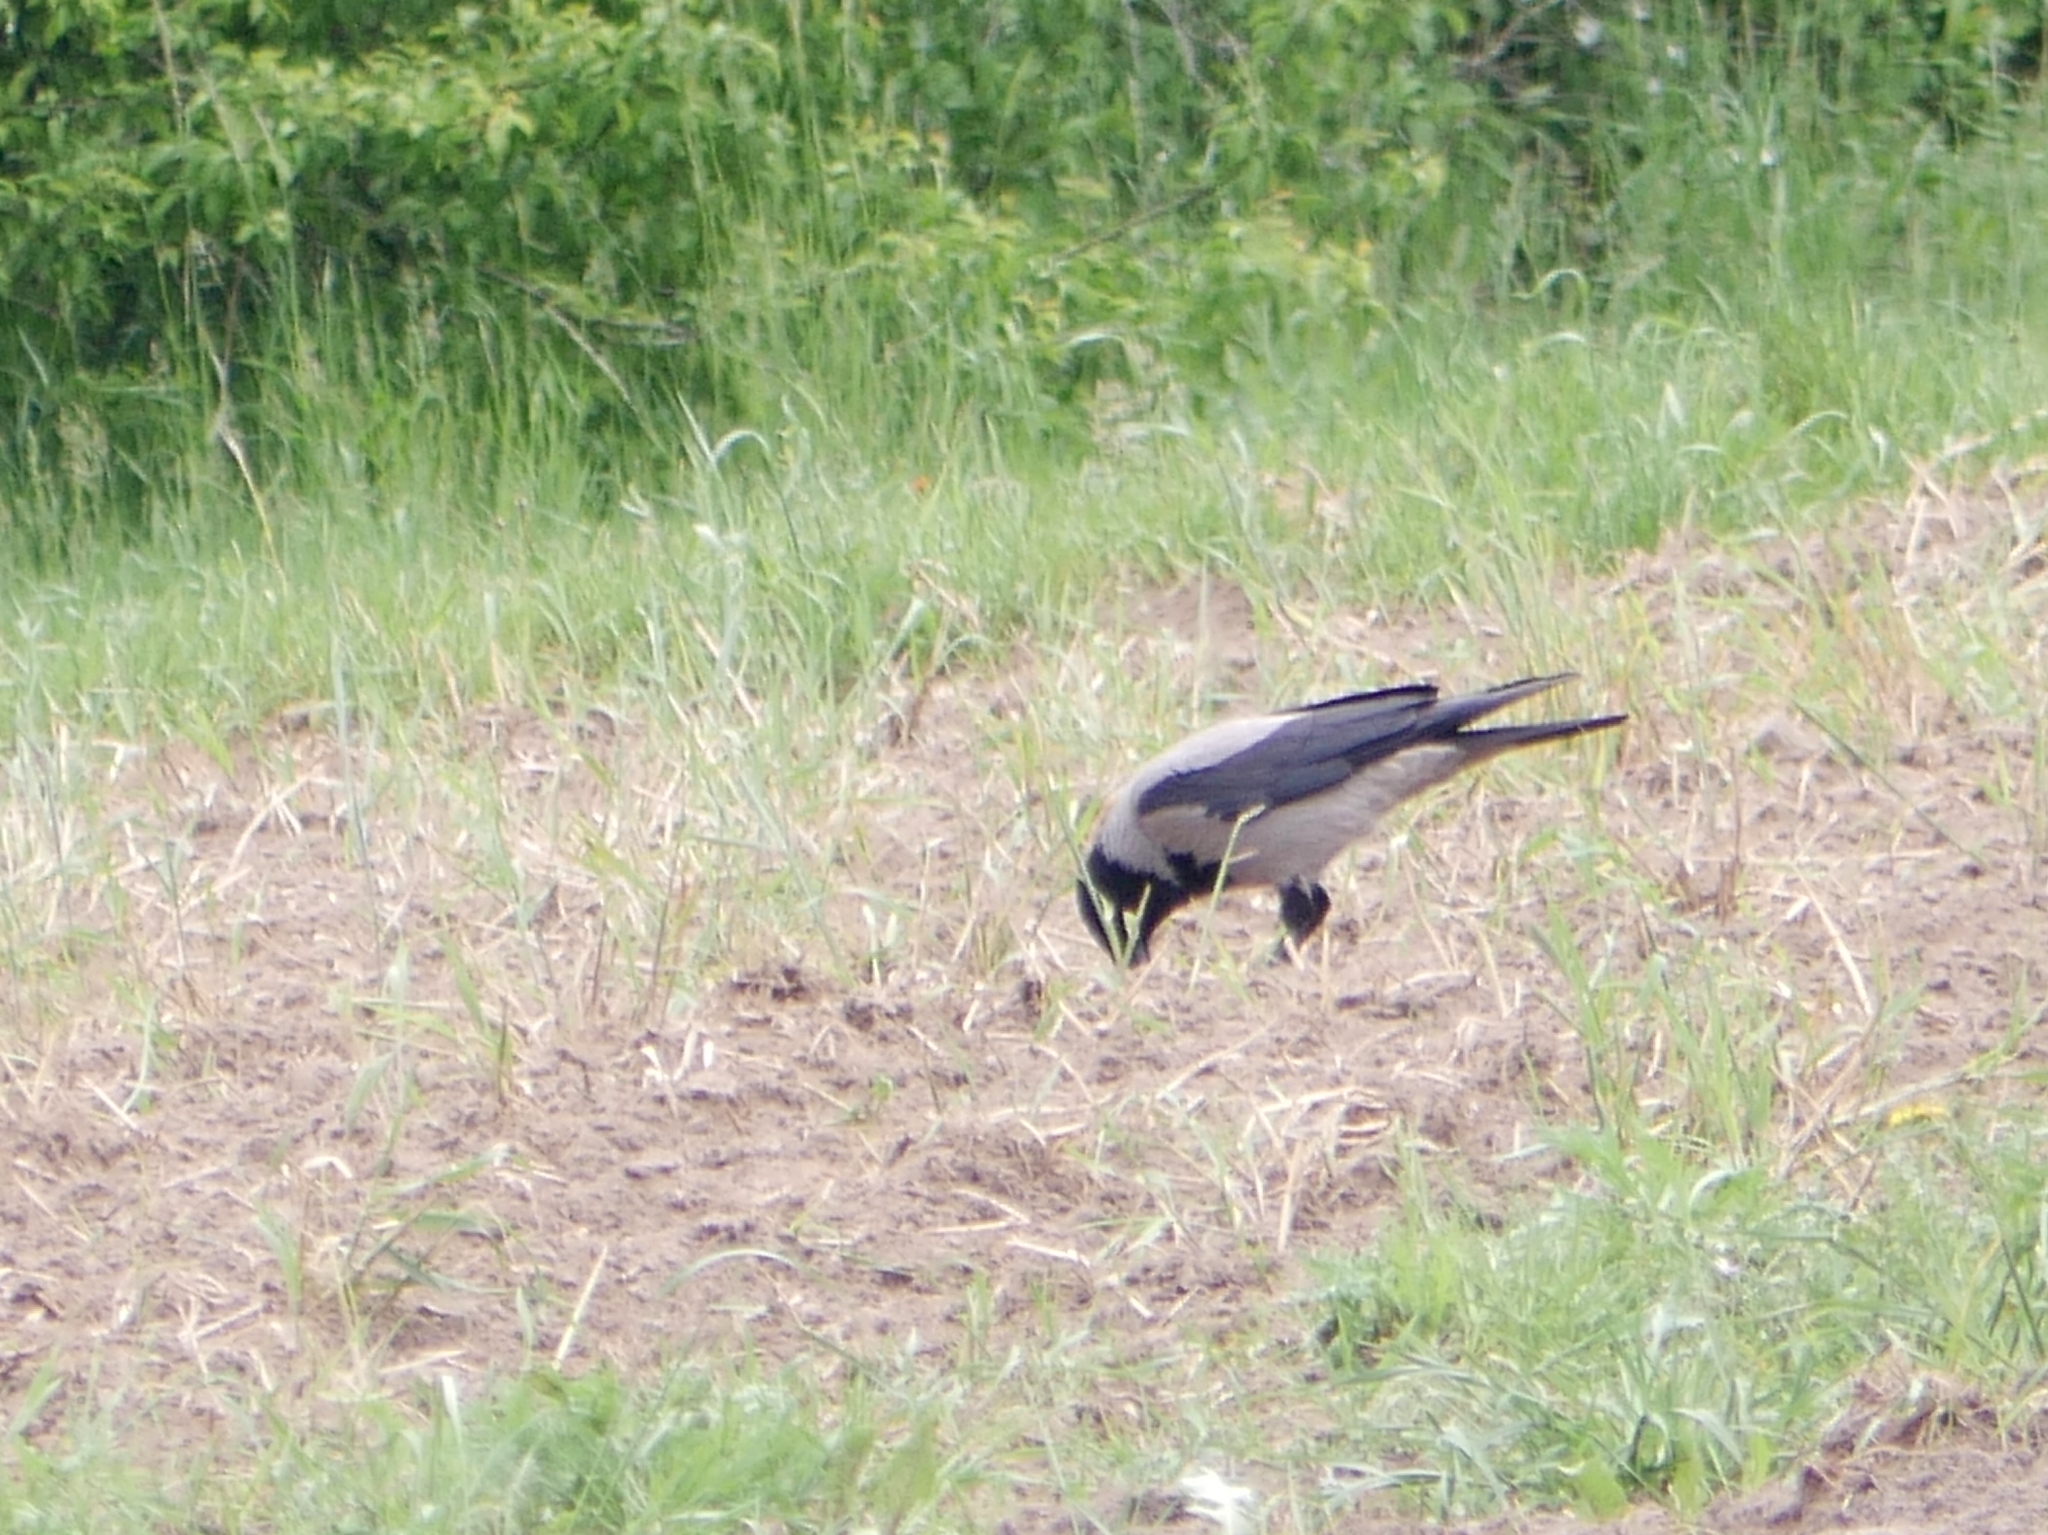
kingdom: Animalia
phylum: Chordata
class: Aves
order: Passeriformes
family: Corvidae
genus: Corvus
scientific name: Corvus cornix
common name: Hooded crow
